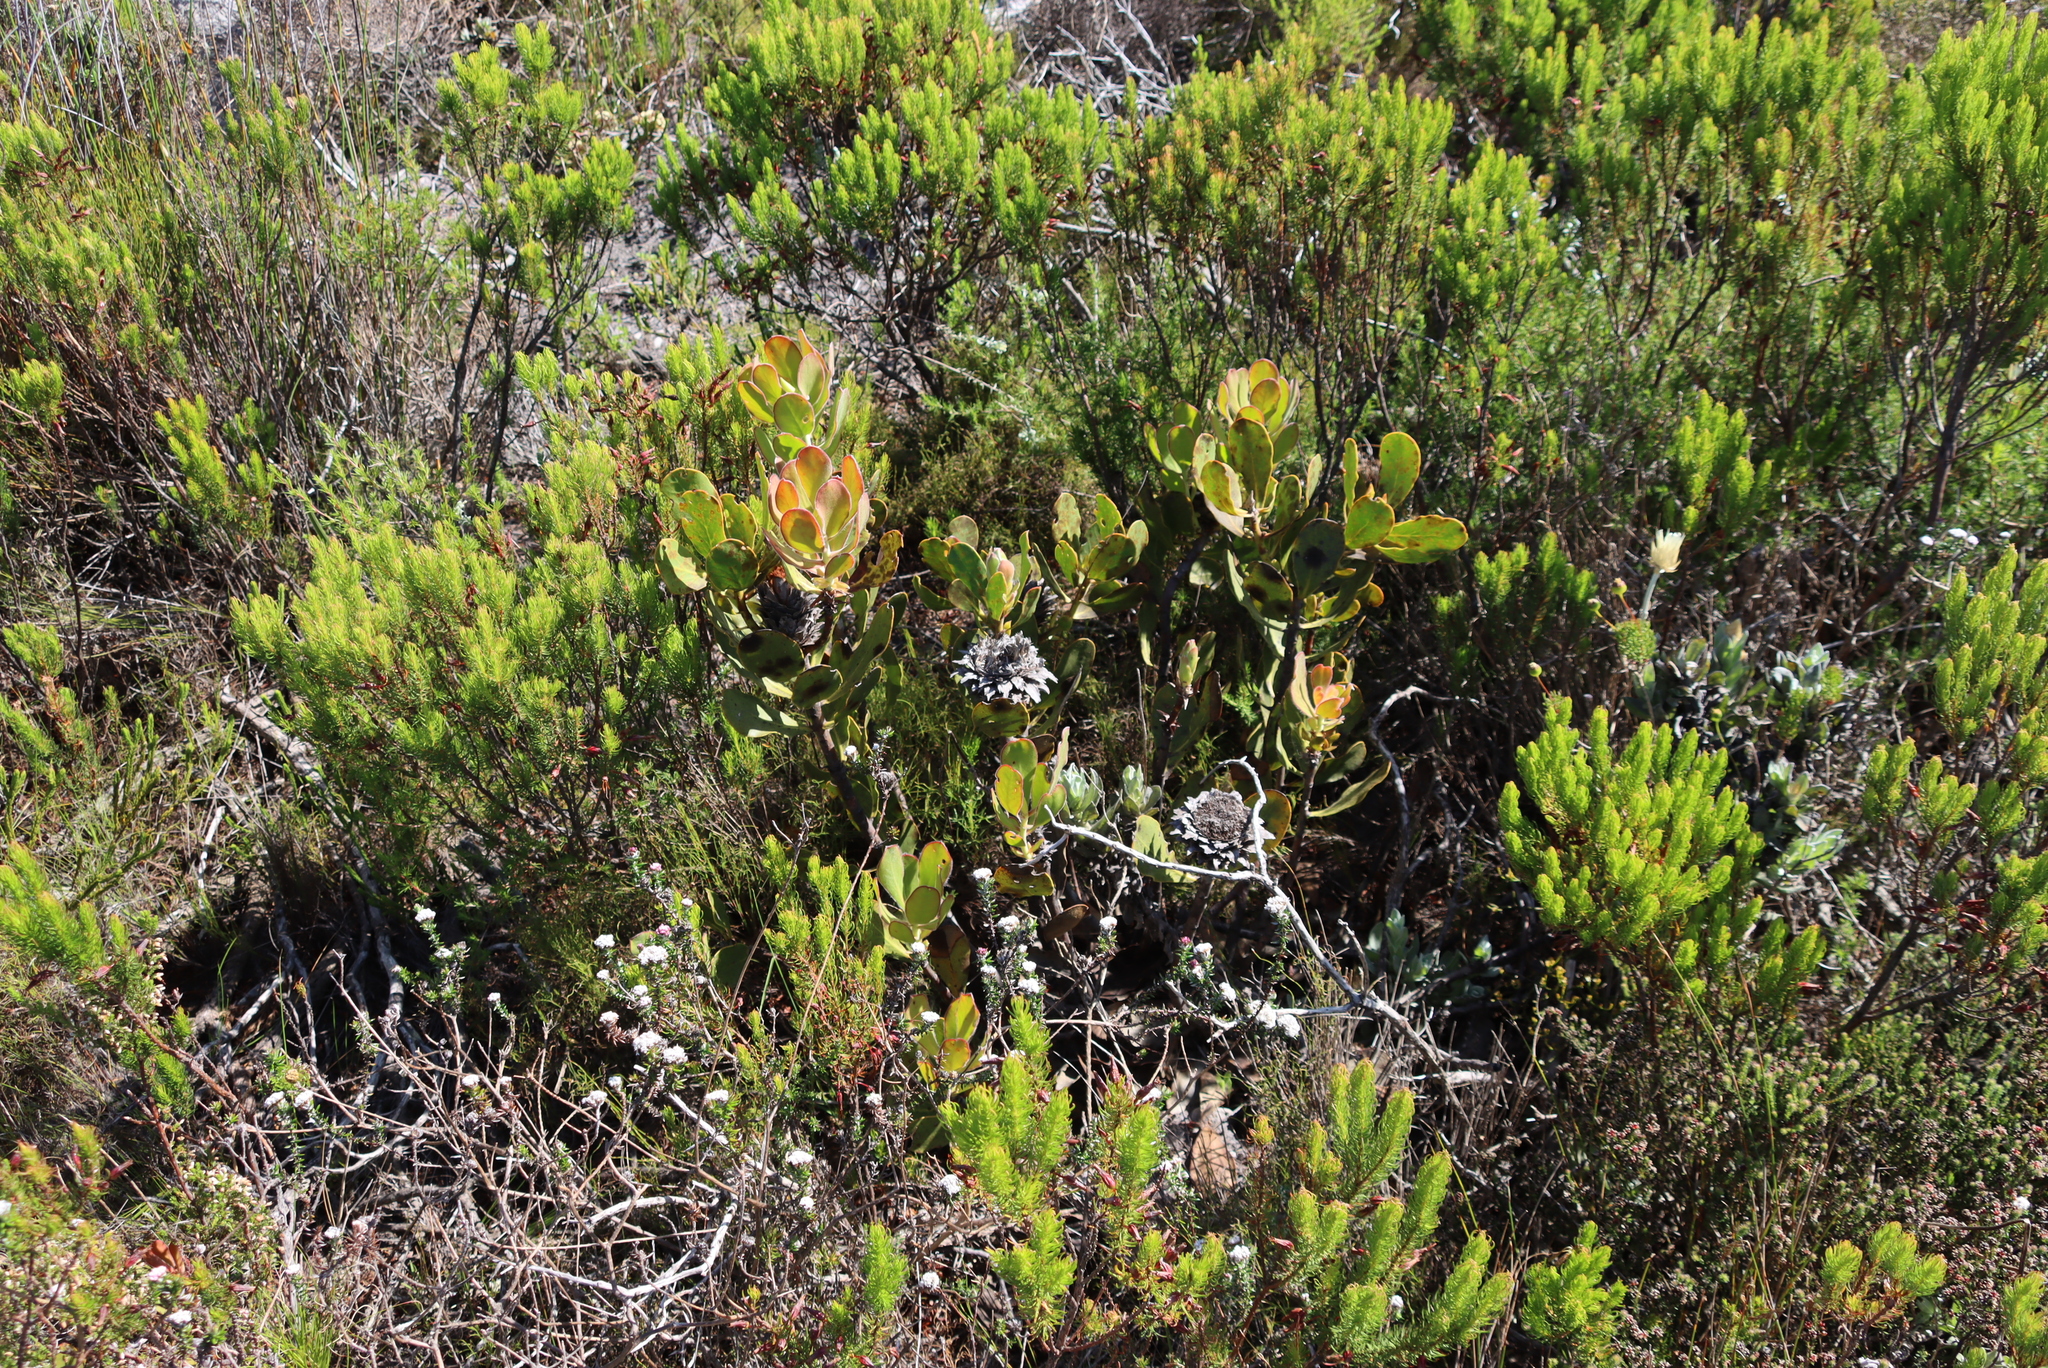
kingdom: Plantae
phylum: Tracheophyta
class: Magnoliopsida
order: Proteales
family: Proteaceae
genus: Protea
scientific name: Protea speciosa
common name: Brown-beard sugarbush
